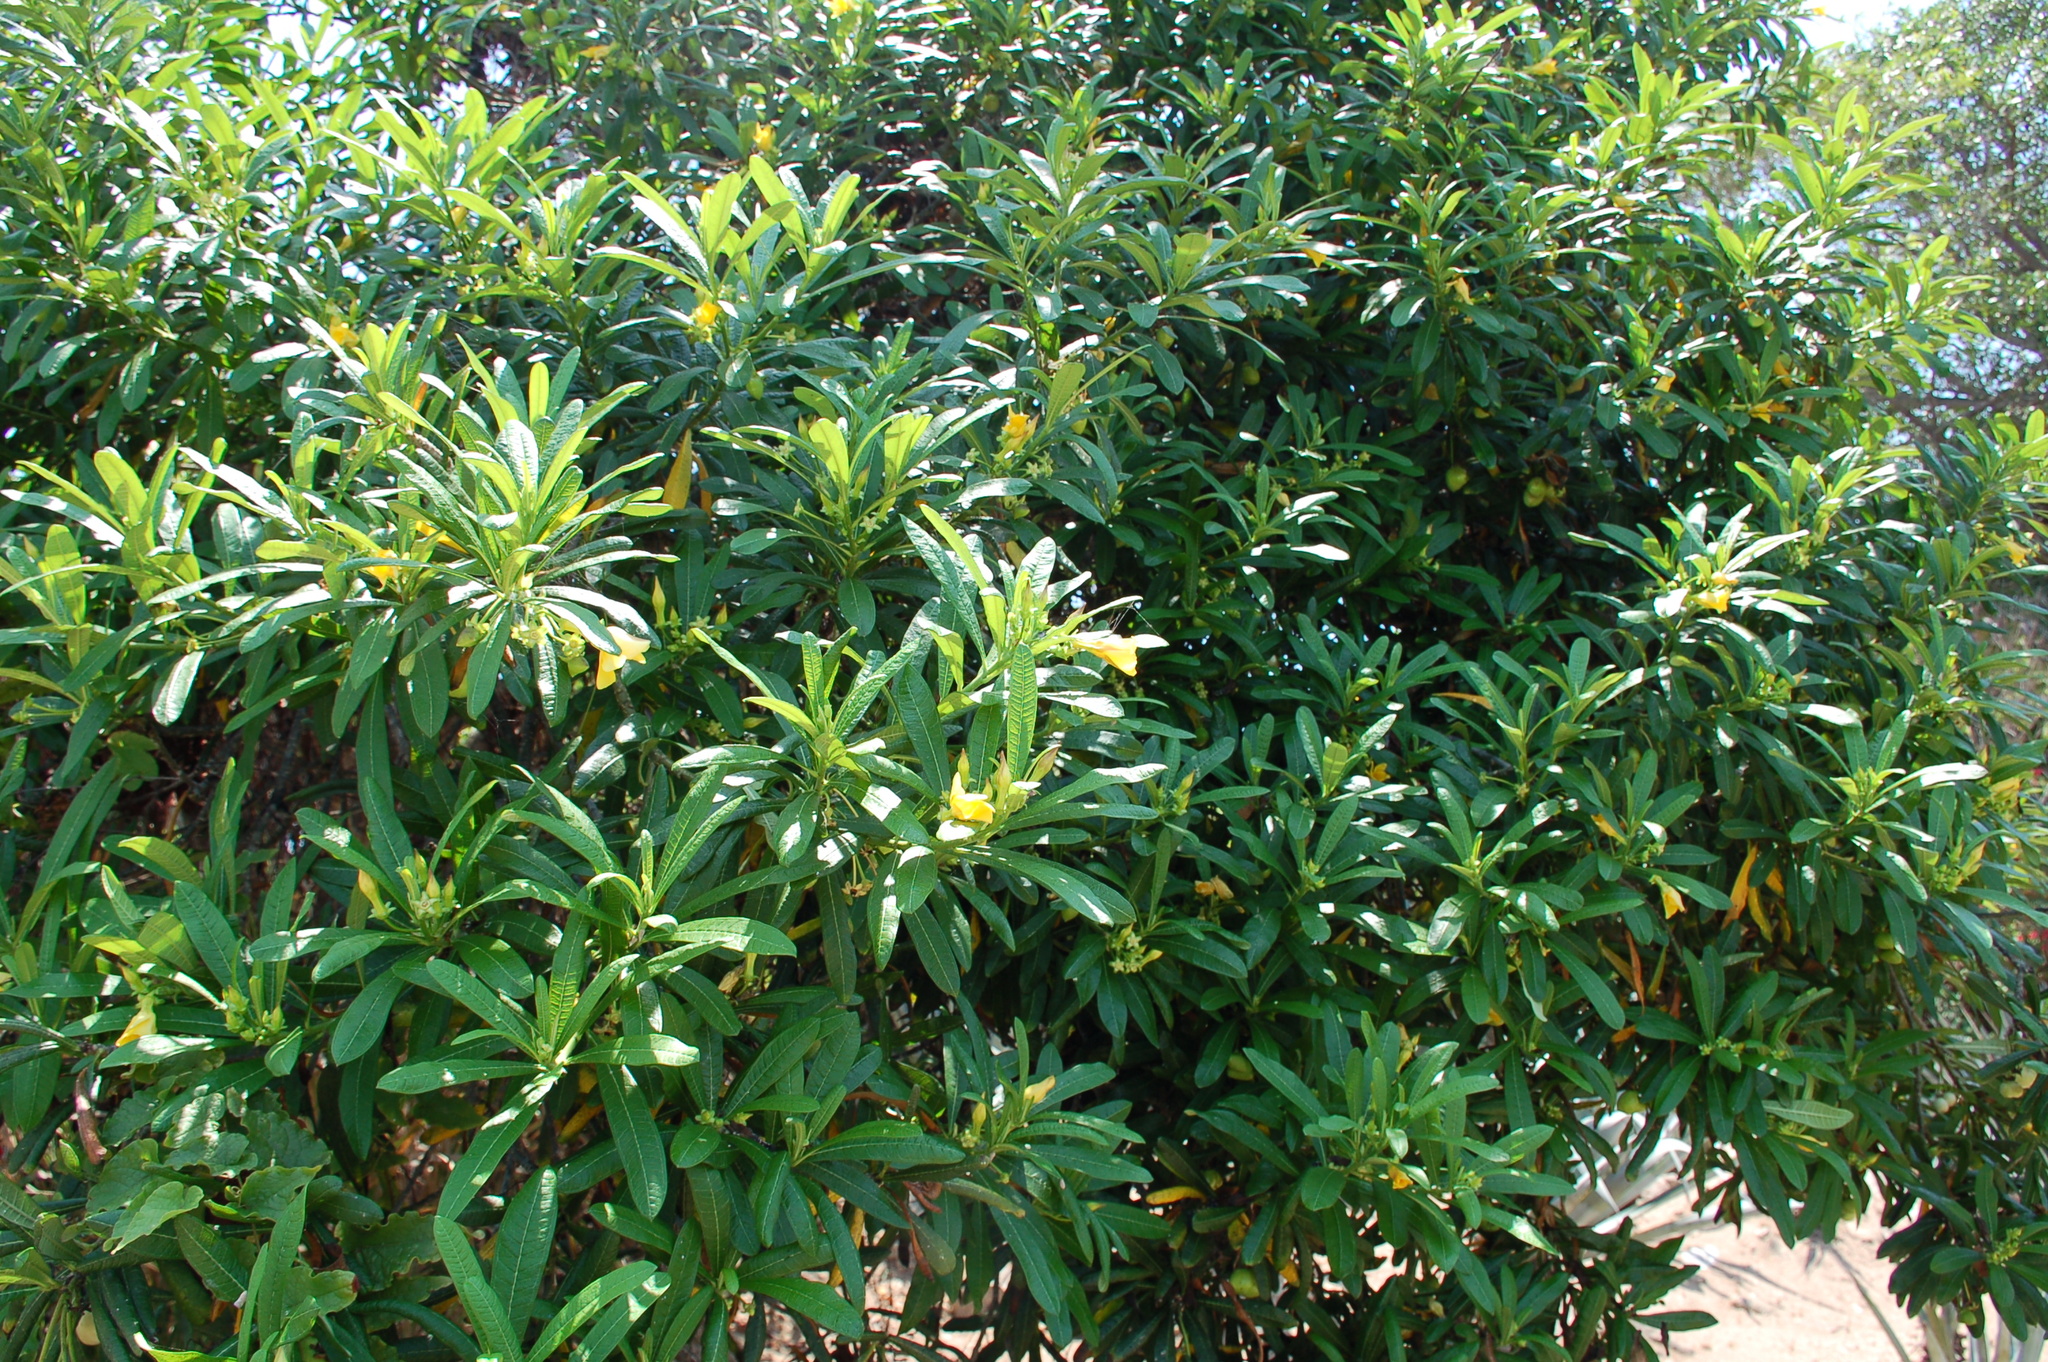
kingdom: Plantae
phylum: Tracheophyta
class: Magnoliopsida
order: Gentianales
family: Apocynaceae
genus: Cascabela
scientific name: Cascabela ovata
